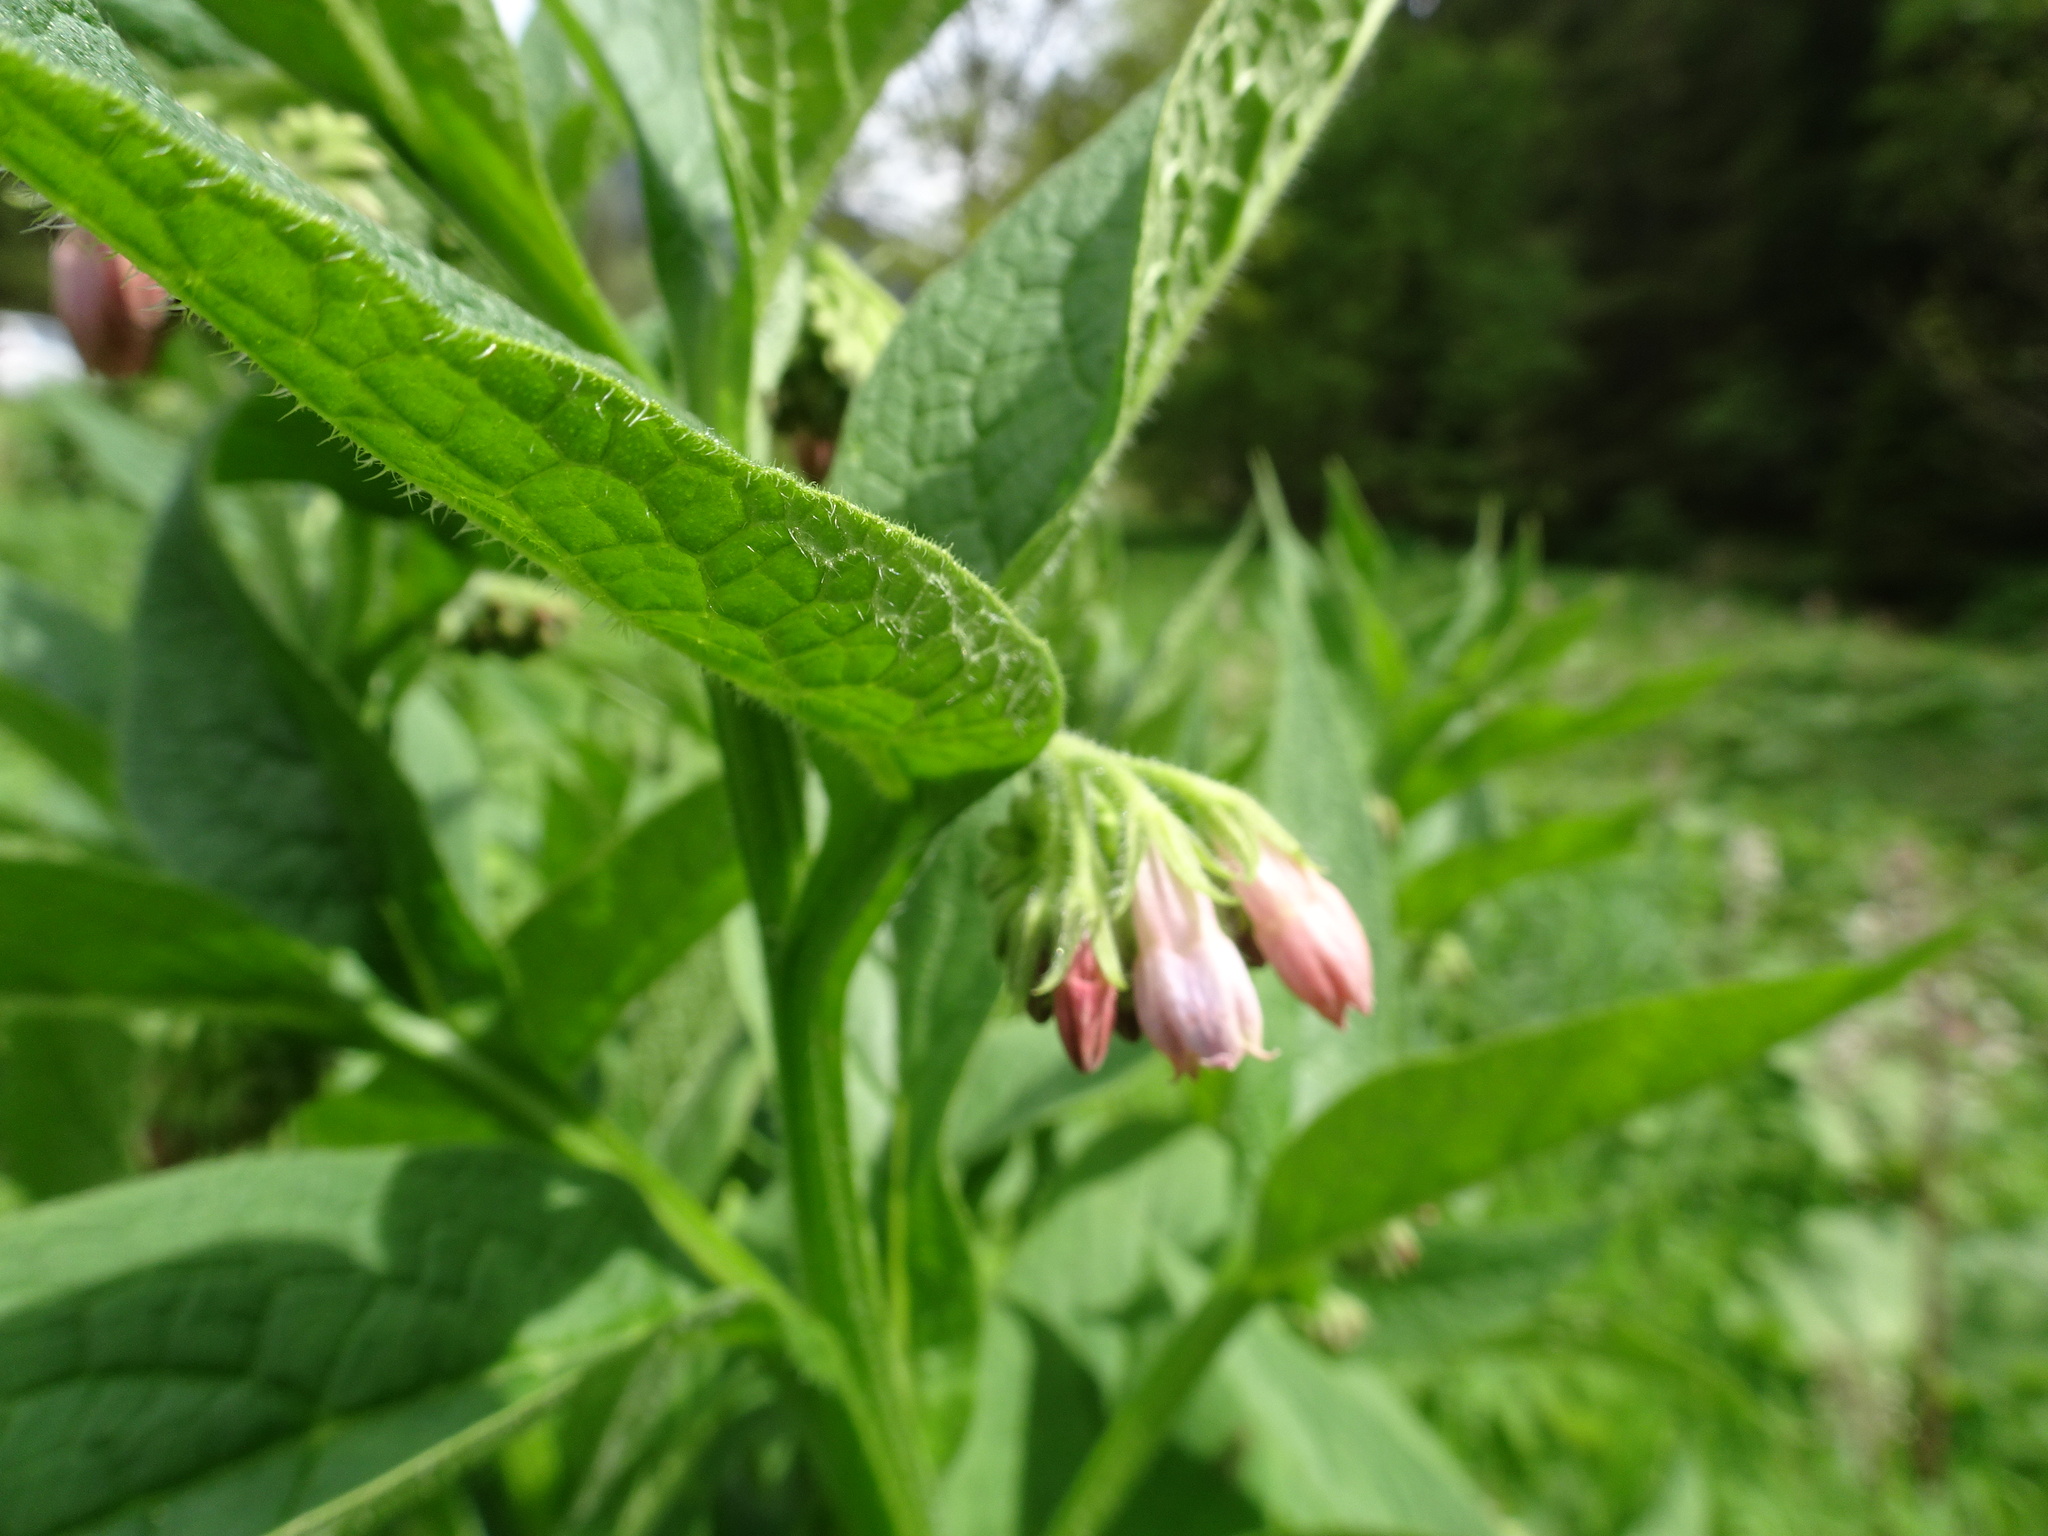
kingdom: Plantae
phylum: Tracheophyta
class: Magnoliopsida
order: Boraginales
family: Boraginaceae
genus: Symphytum
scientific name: Symphytum officinale
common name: Common comfrey
